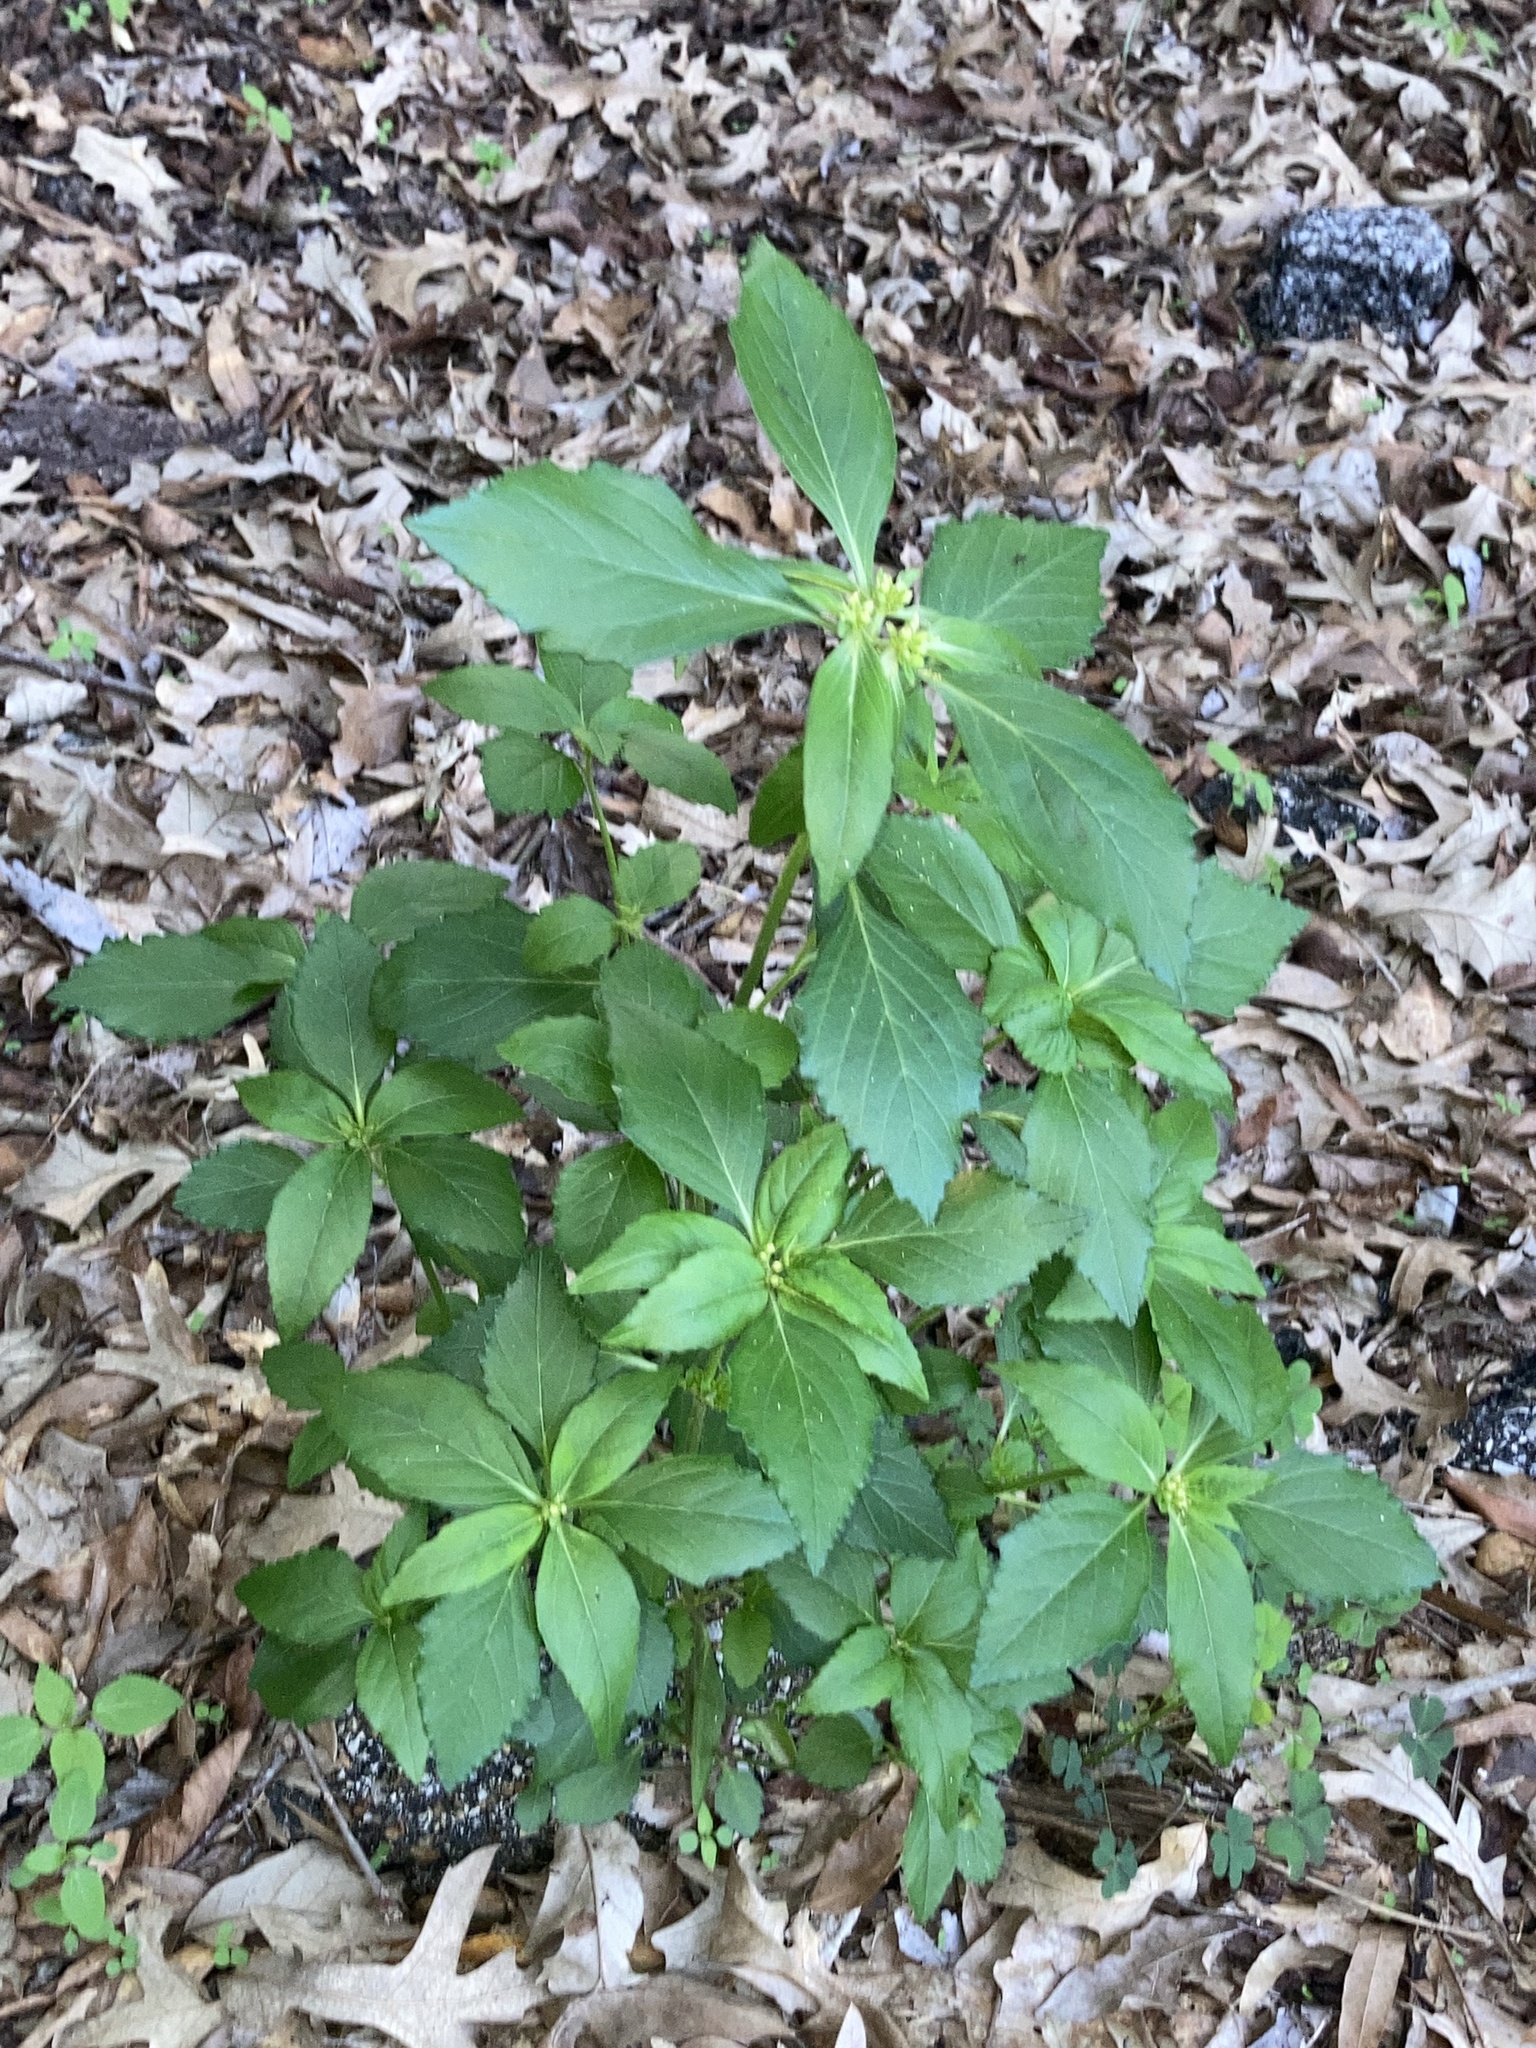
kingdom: Plantae
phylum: Tracheophyta
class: Magnoliopsida
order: Malpighiales
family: Euphorbiaceae
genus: Euphorbia
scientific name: Euphorbia dentata
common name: Dentate spurge
